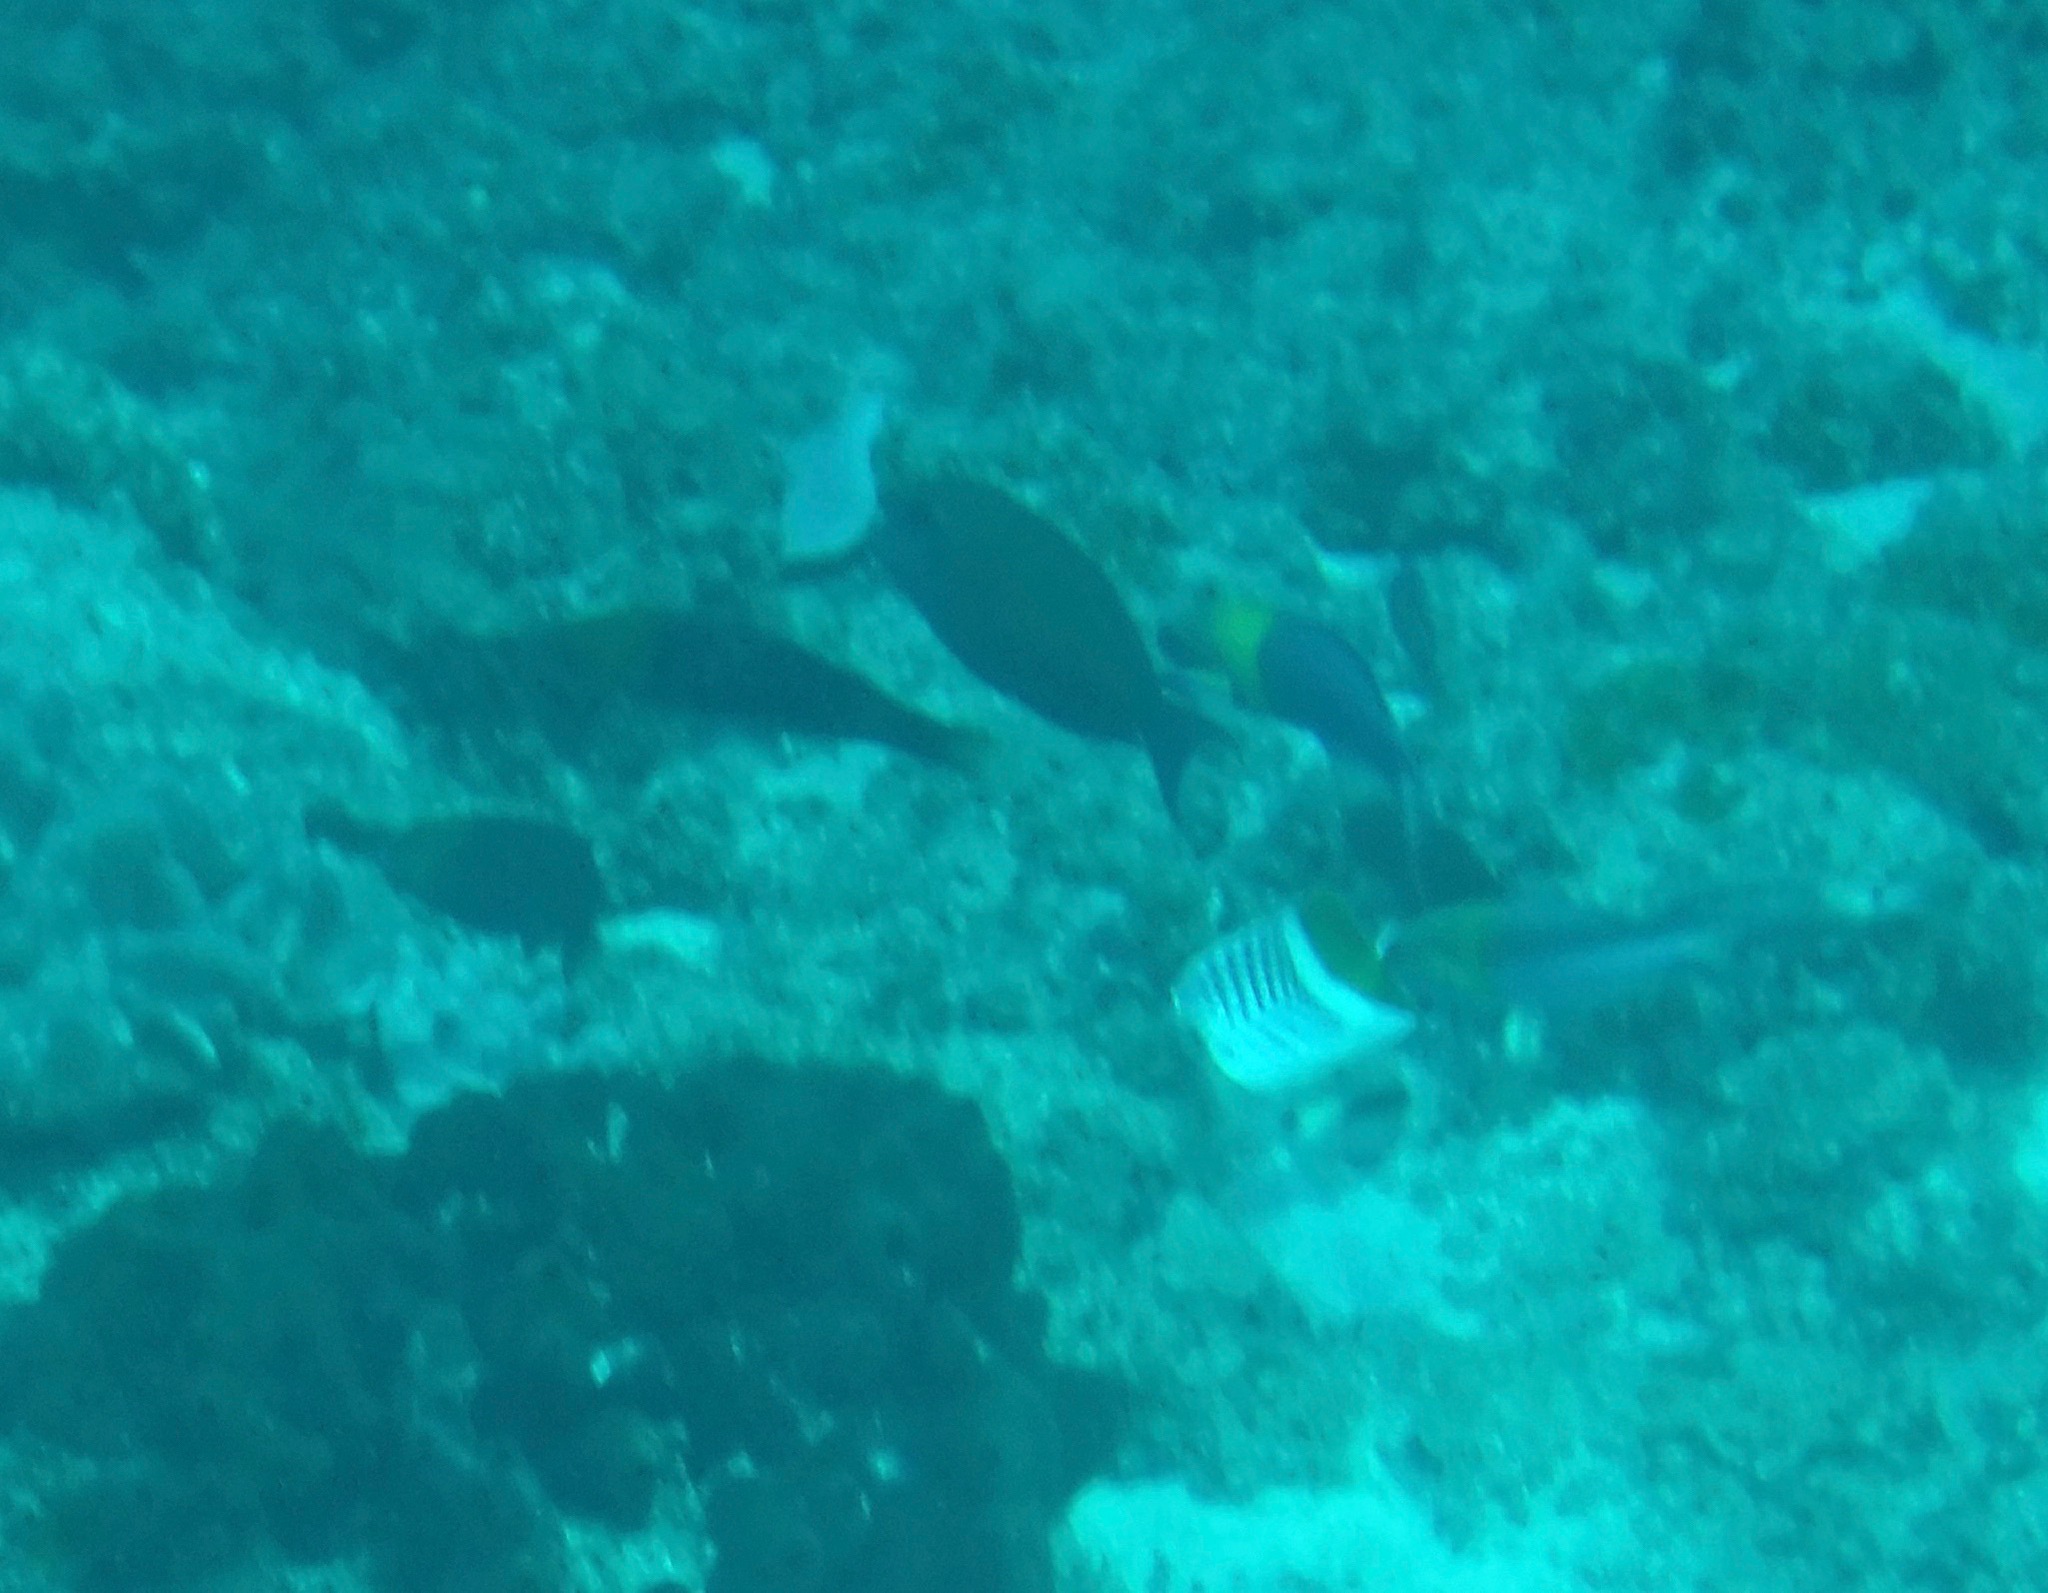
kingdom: Animalia
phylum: Chordata
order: Perciformes
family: Chaetodontidae
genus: Chaetodon
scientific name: Chaetodon madagaskariensis
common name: Madagascar butterflyfish
